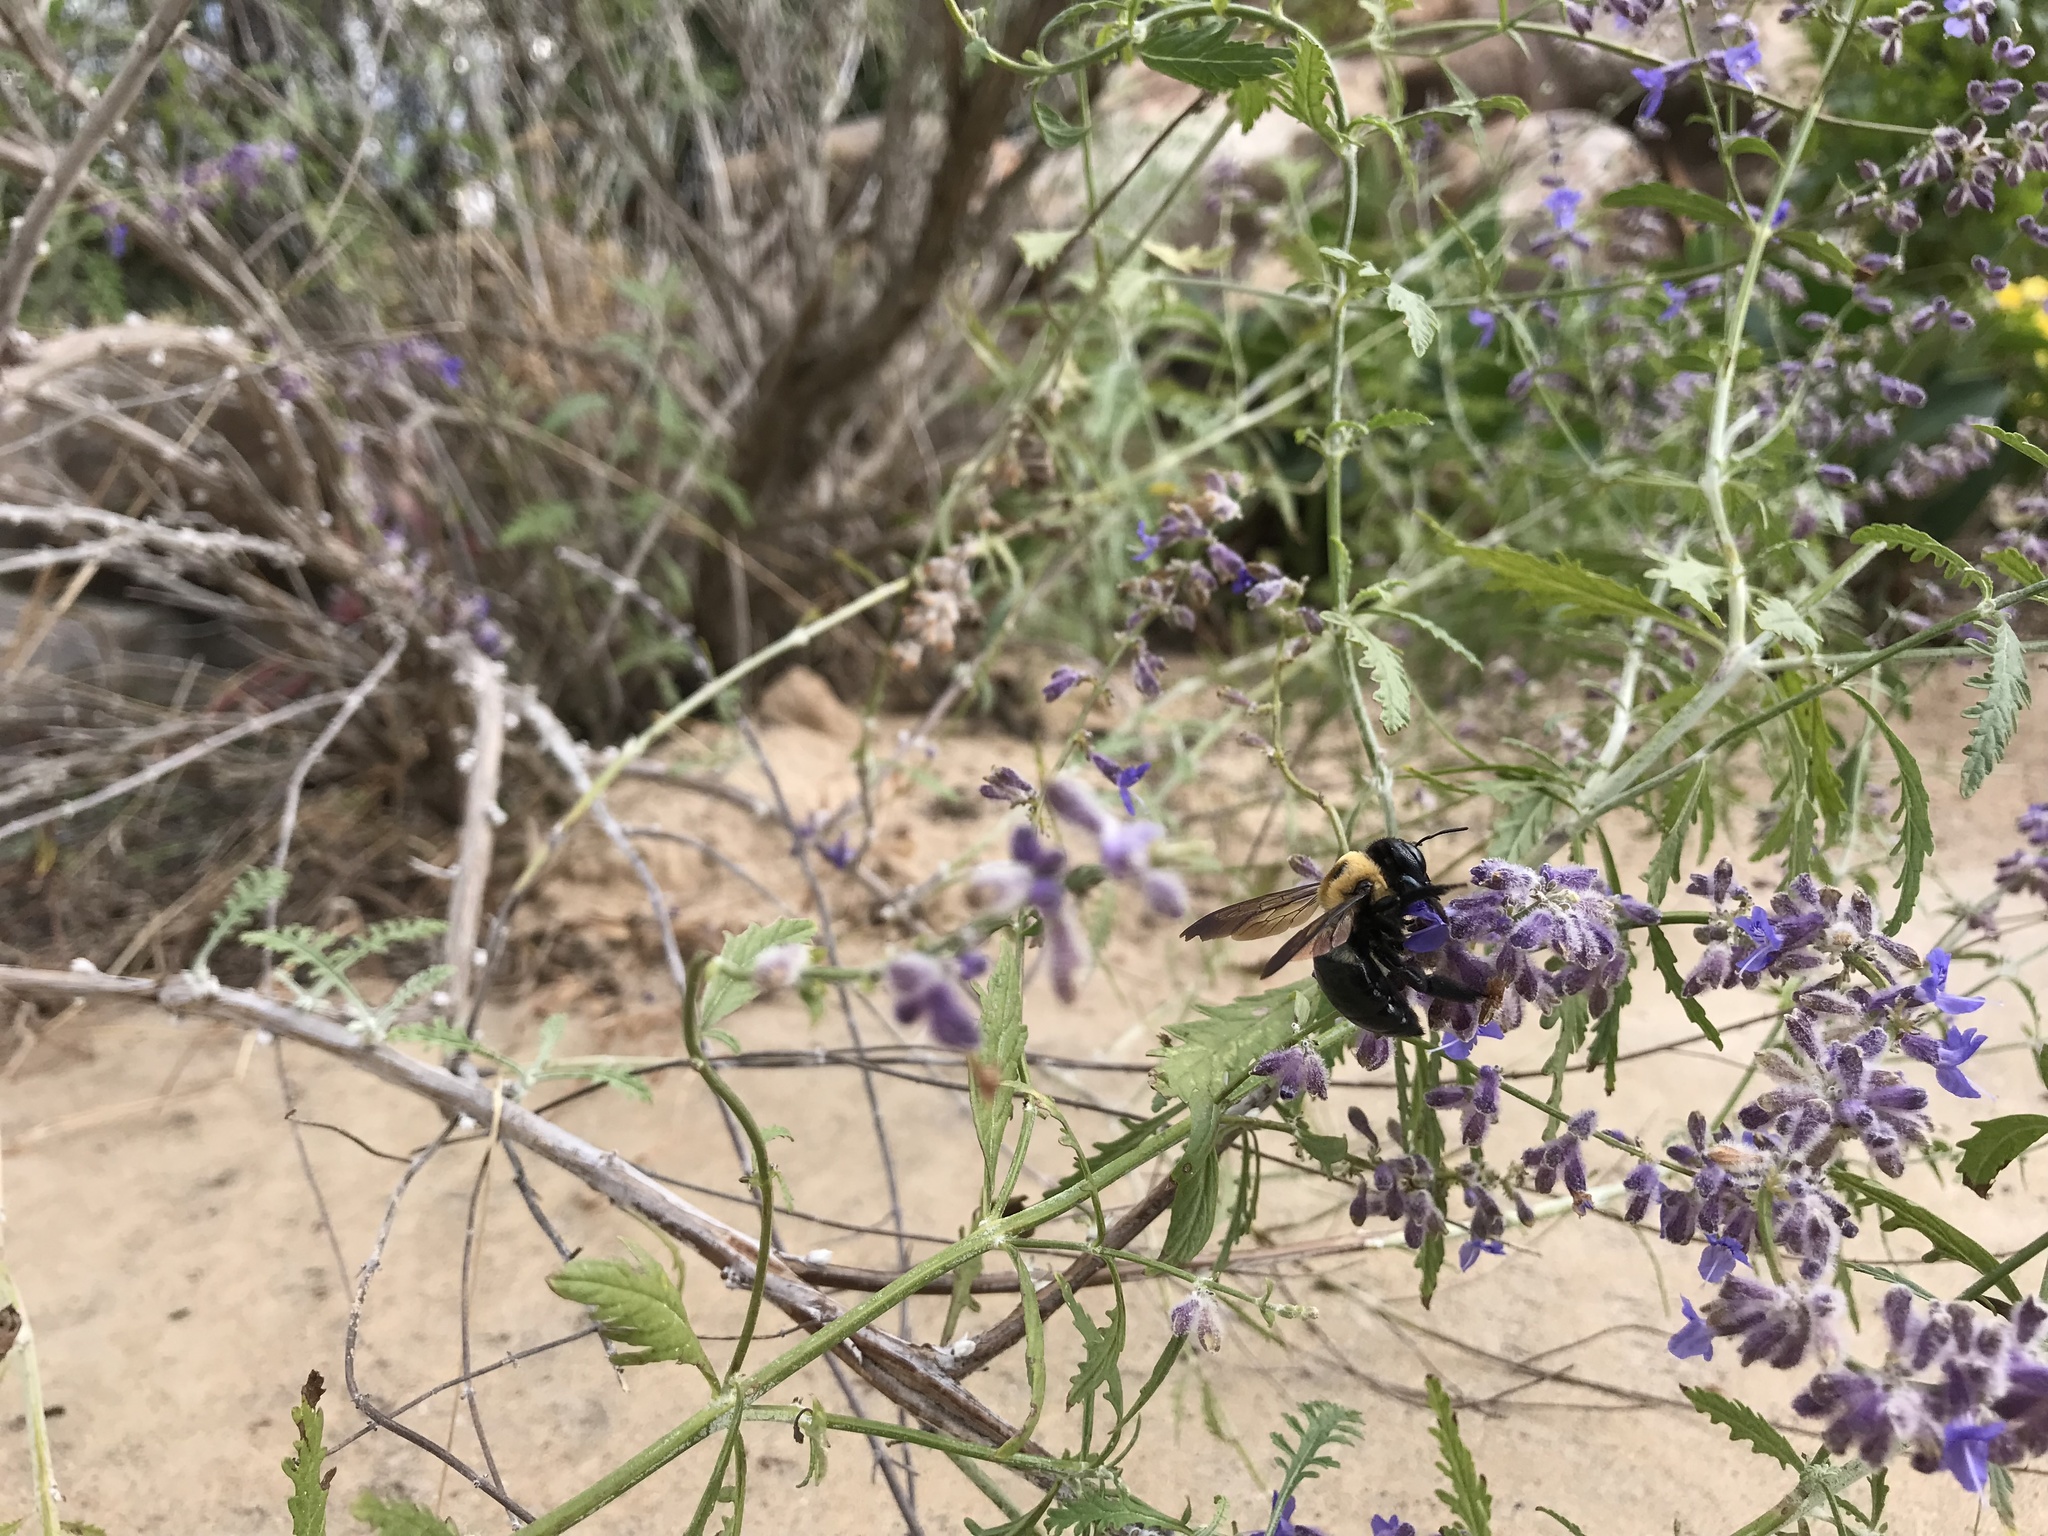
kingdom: Animalia
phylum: Arthropoda
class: Insecta
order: Hymenoptera
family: Apidae
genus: Xylocopa
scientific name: Xylocopa virginica
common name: Carpenter bee
